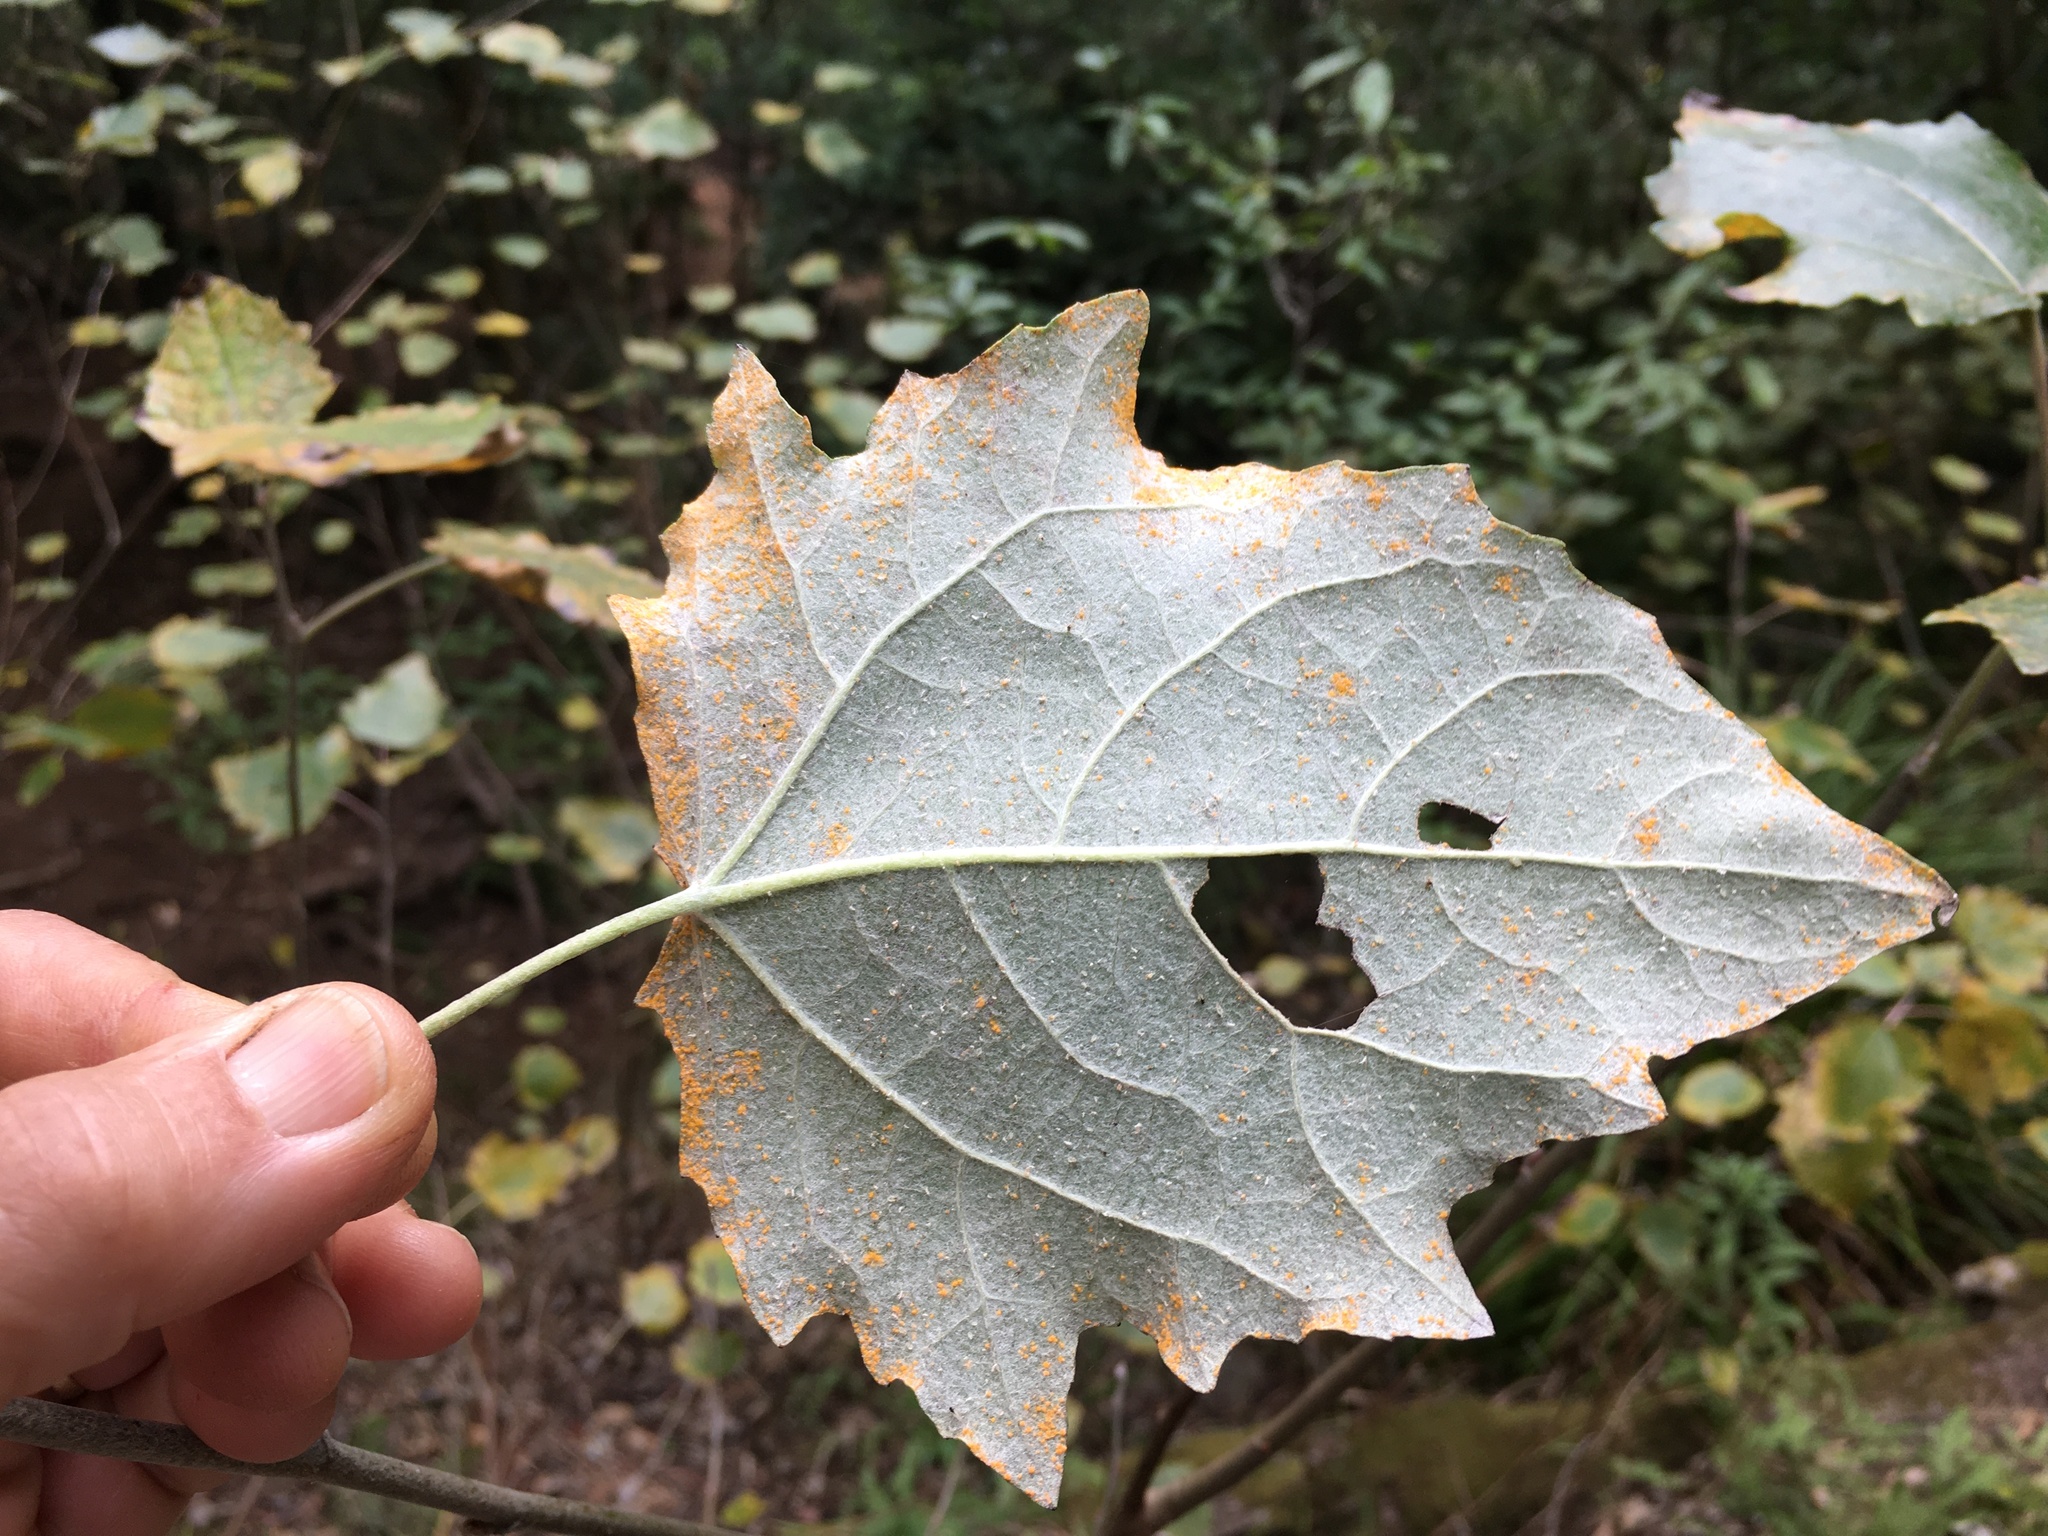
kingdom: Plantae
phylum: Tracheophyta
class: Magnoliopsida
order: Malpighiales
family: Salicaceae
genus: Populus
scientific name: Populus canescens
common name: Gray poplar
